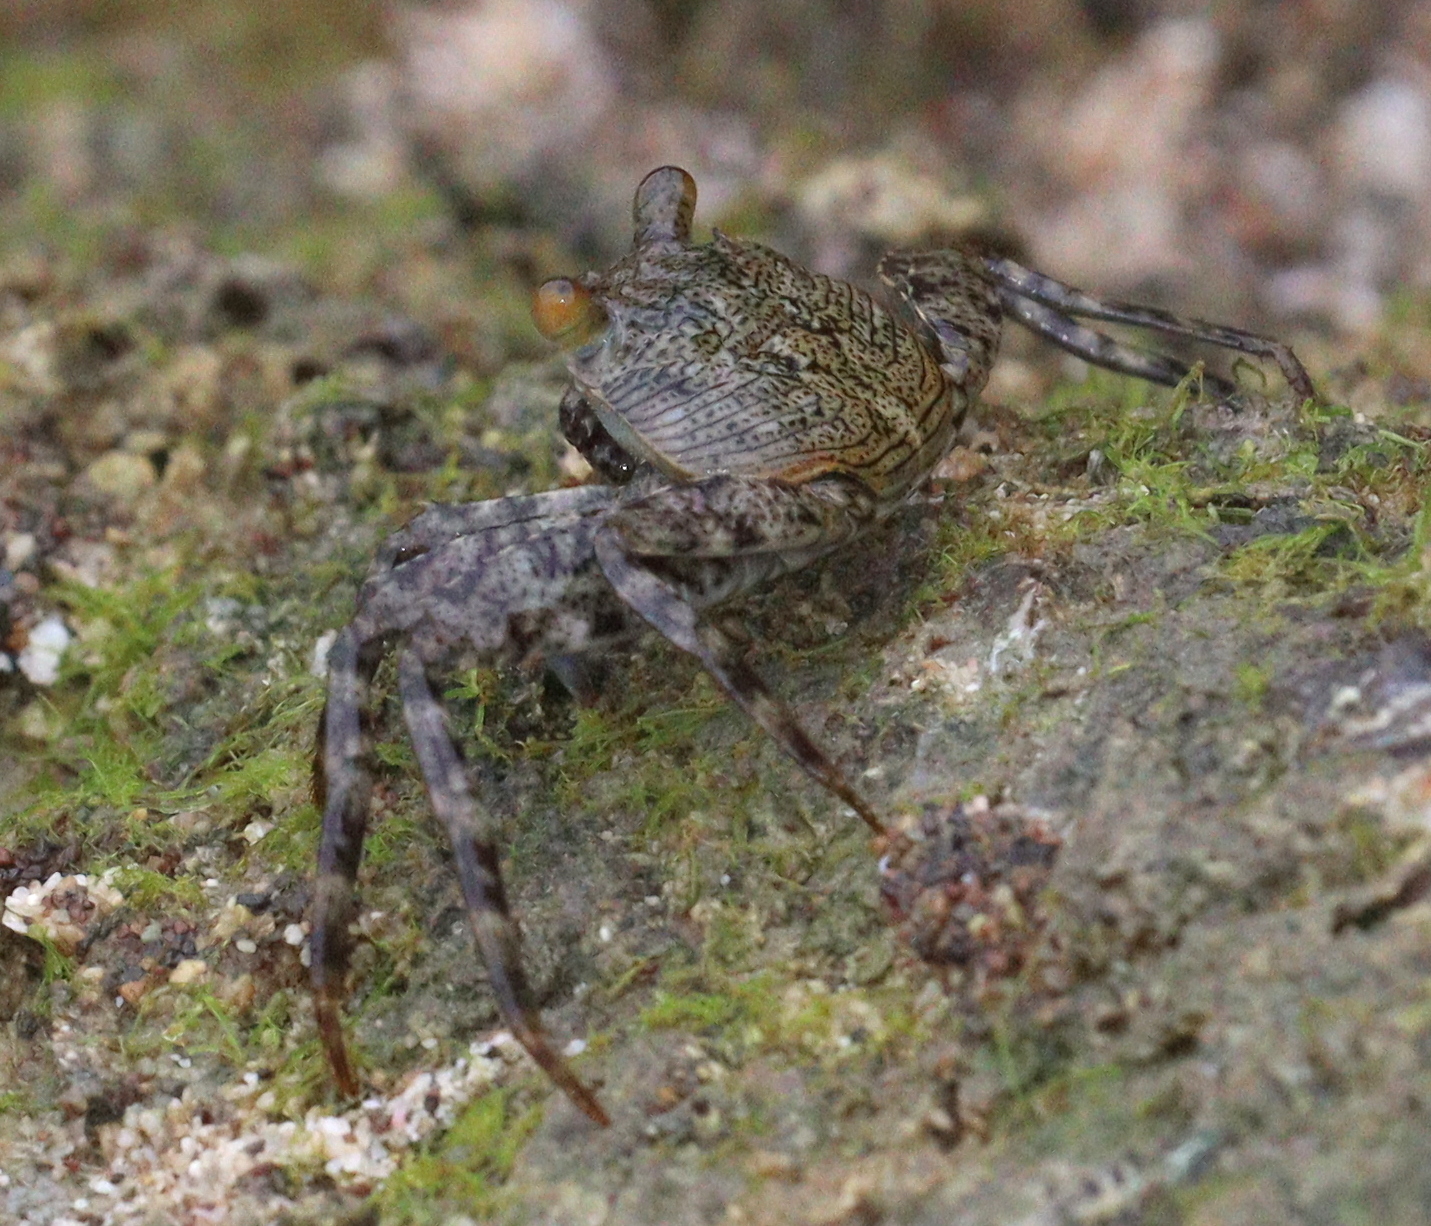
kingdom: Animalia
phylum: Arthropoda
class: Malacostraca
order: Decapoda
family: Grapsidae
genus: Grapsus
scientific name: Grapsus grapsus
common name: Sally lightfoot
